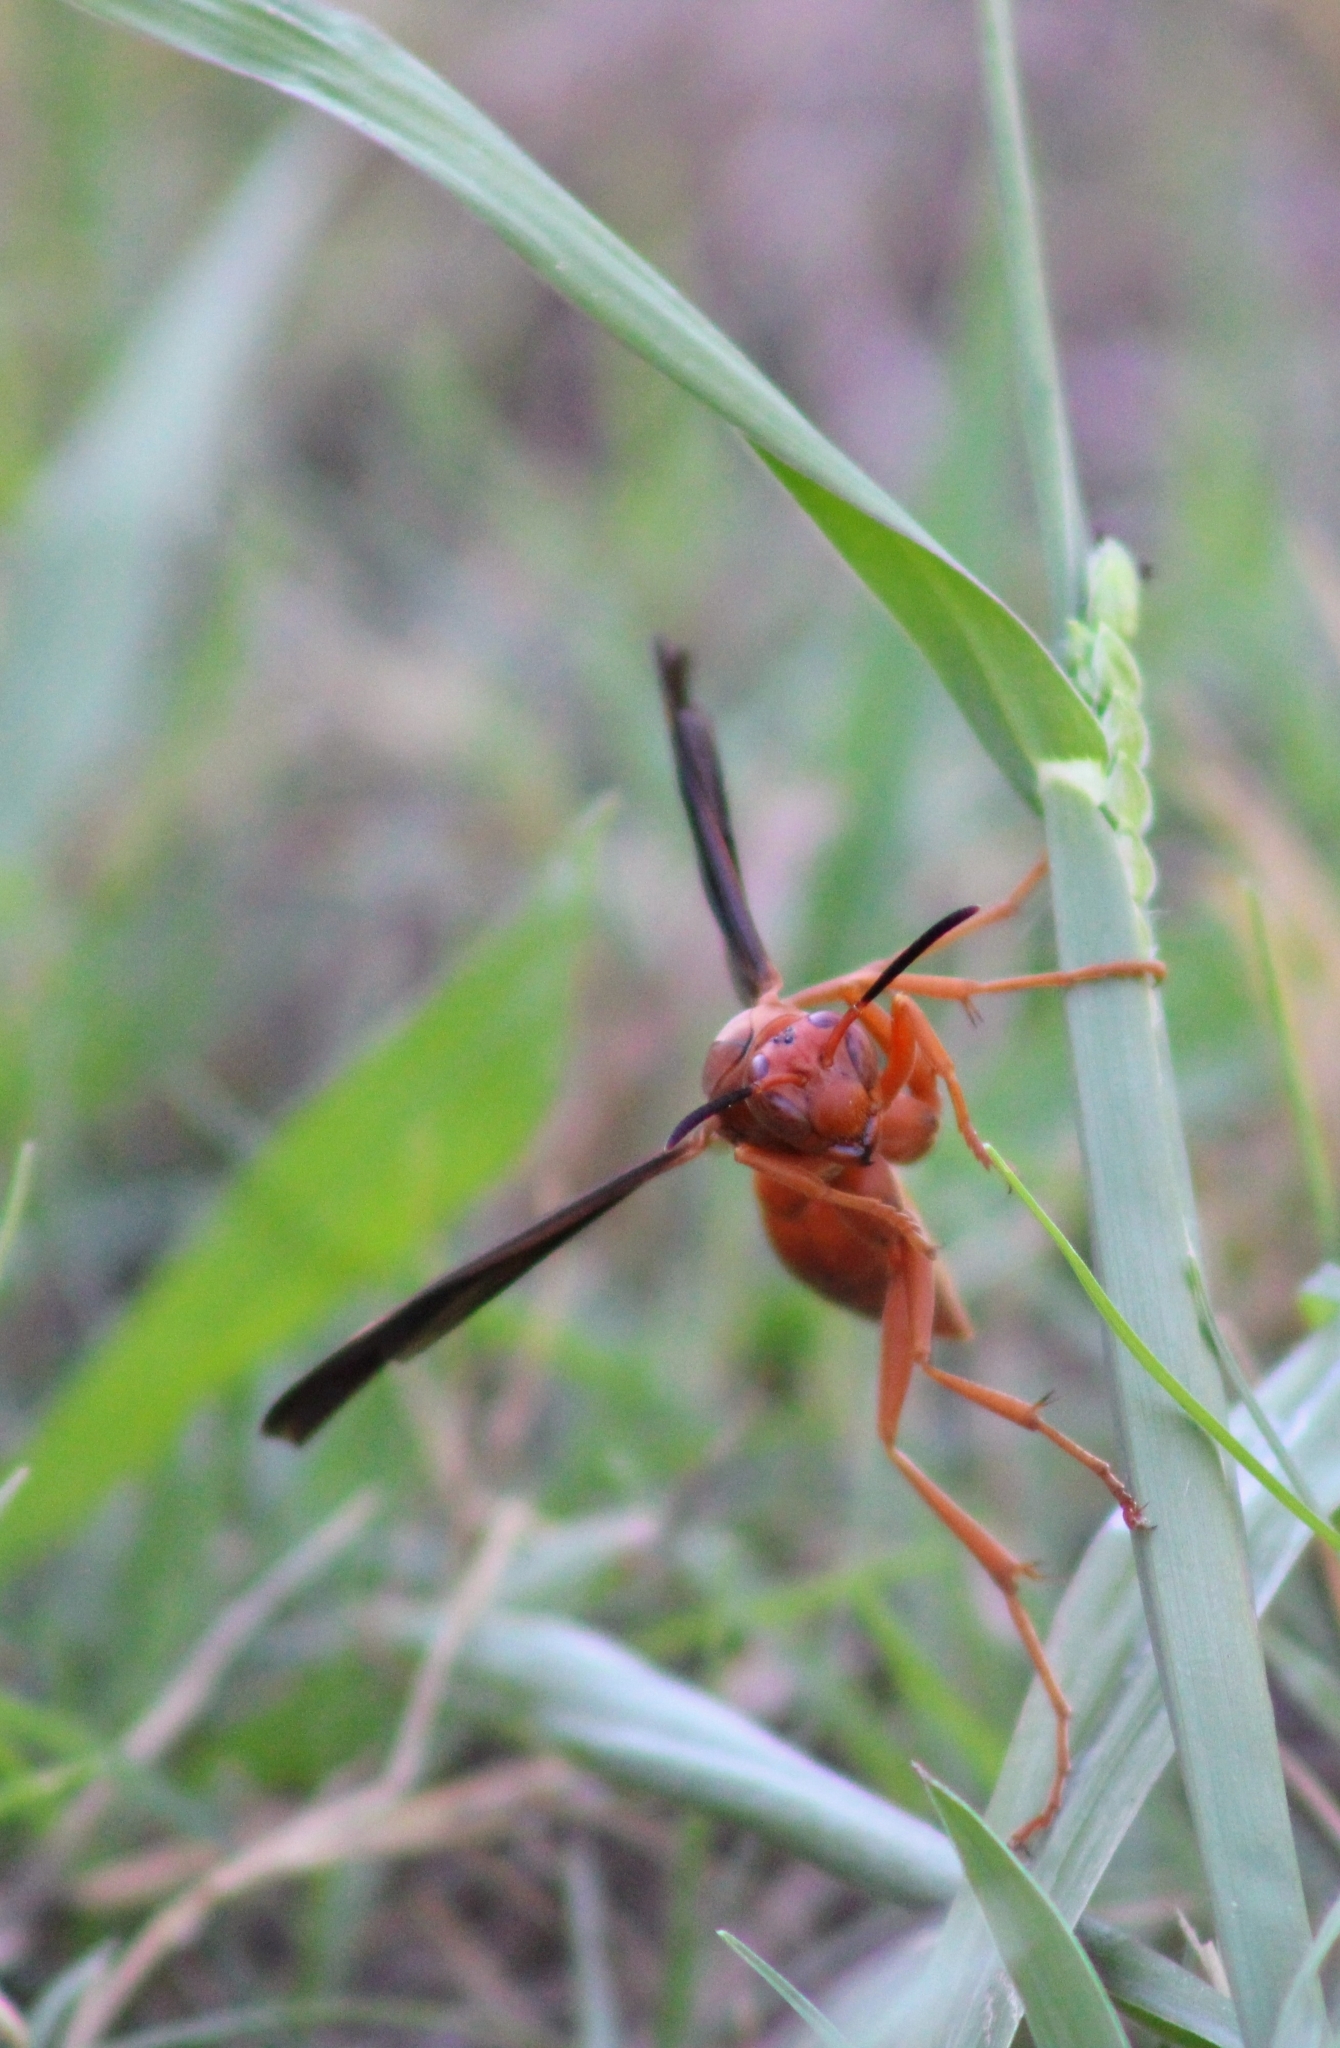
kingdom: Animalia
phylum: Arthropoda
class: Insecta
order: Hymenoptera
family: Vespidae
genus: Fuscopolistes
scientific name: Fuscopolistes
